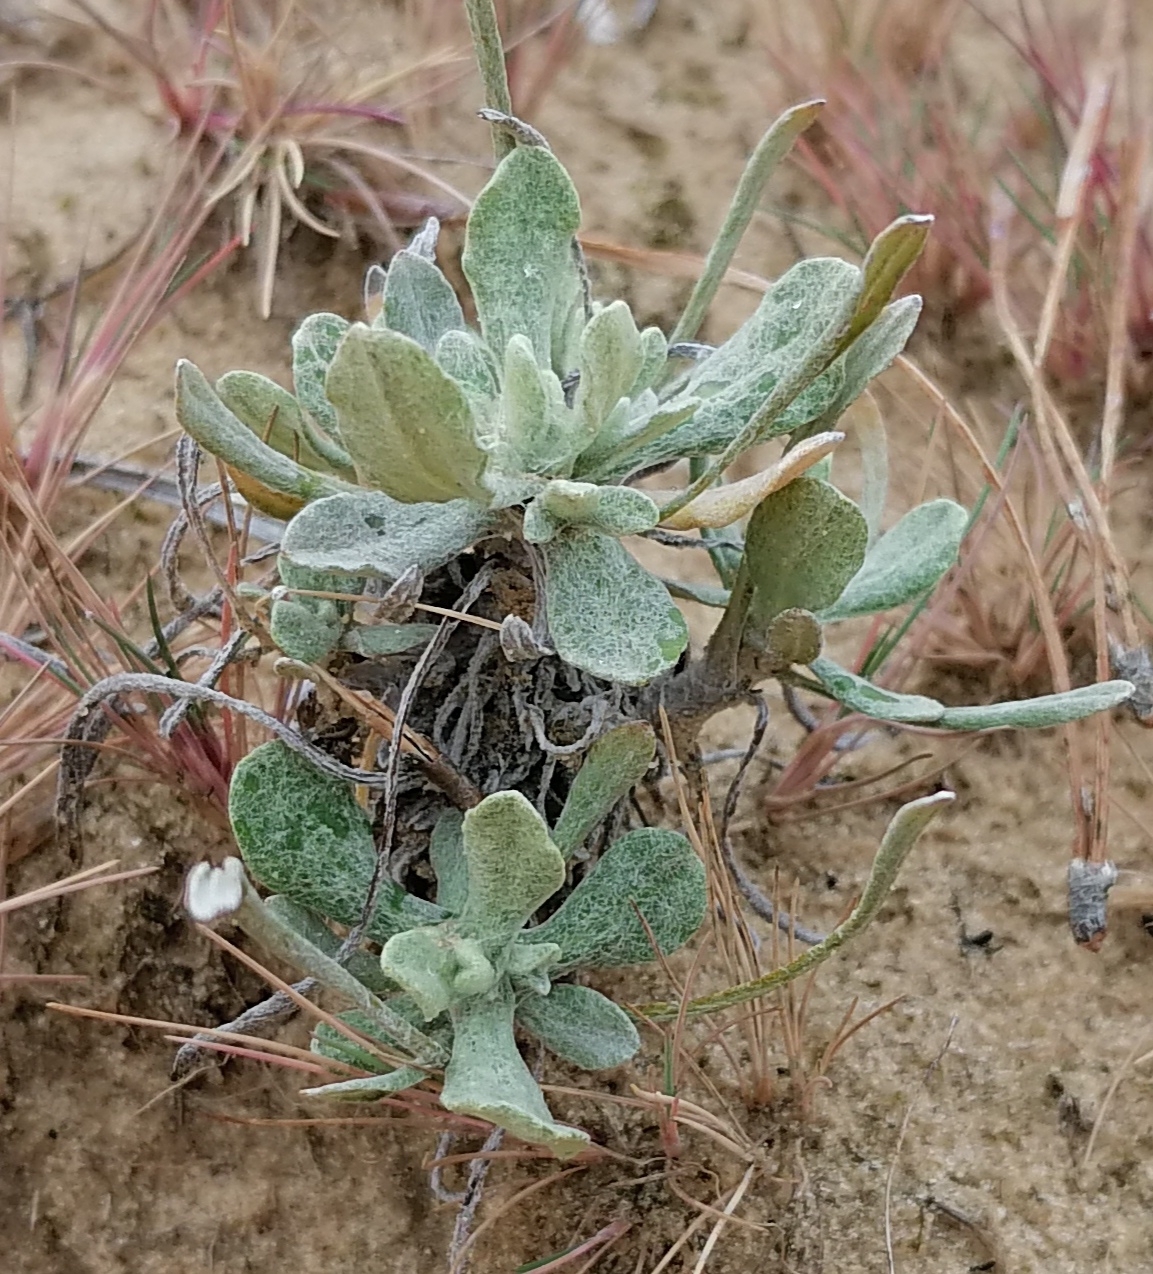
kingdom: Plantae
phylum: Tracheophyta
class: Magnoliopsida
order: Asterales
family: Asteraceae
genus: Helichrysum
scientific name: Helichrysum arenarium
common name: Strawflower
